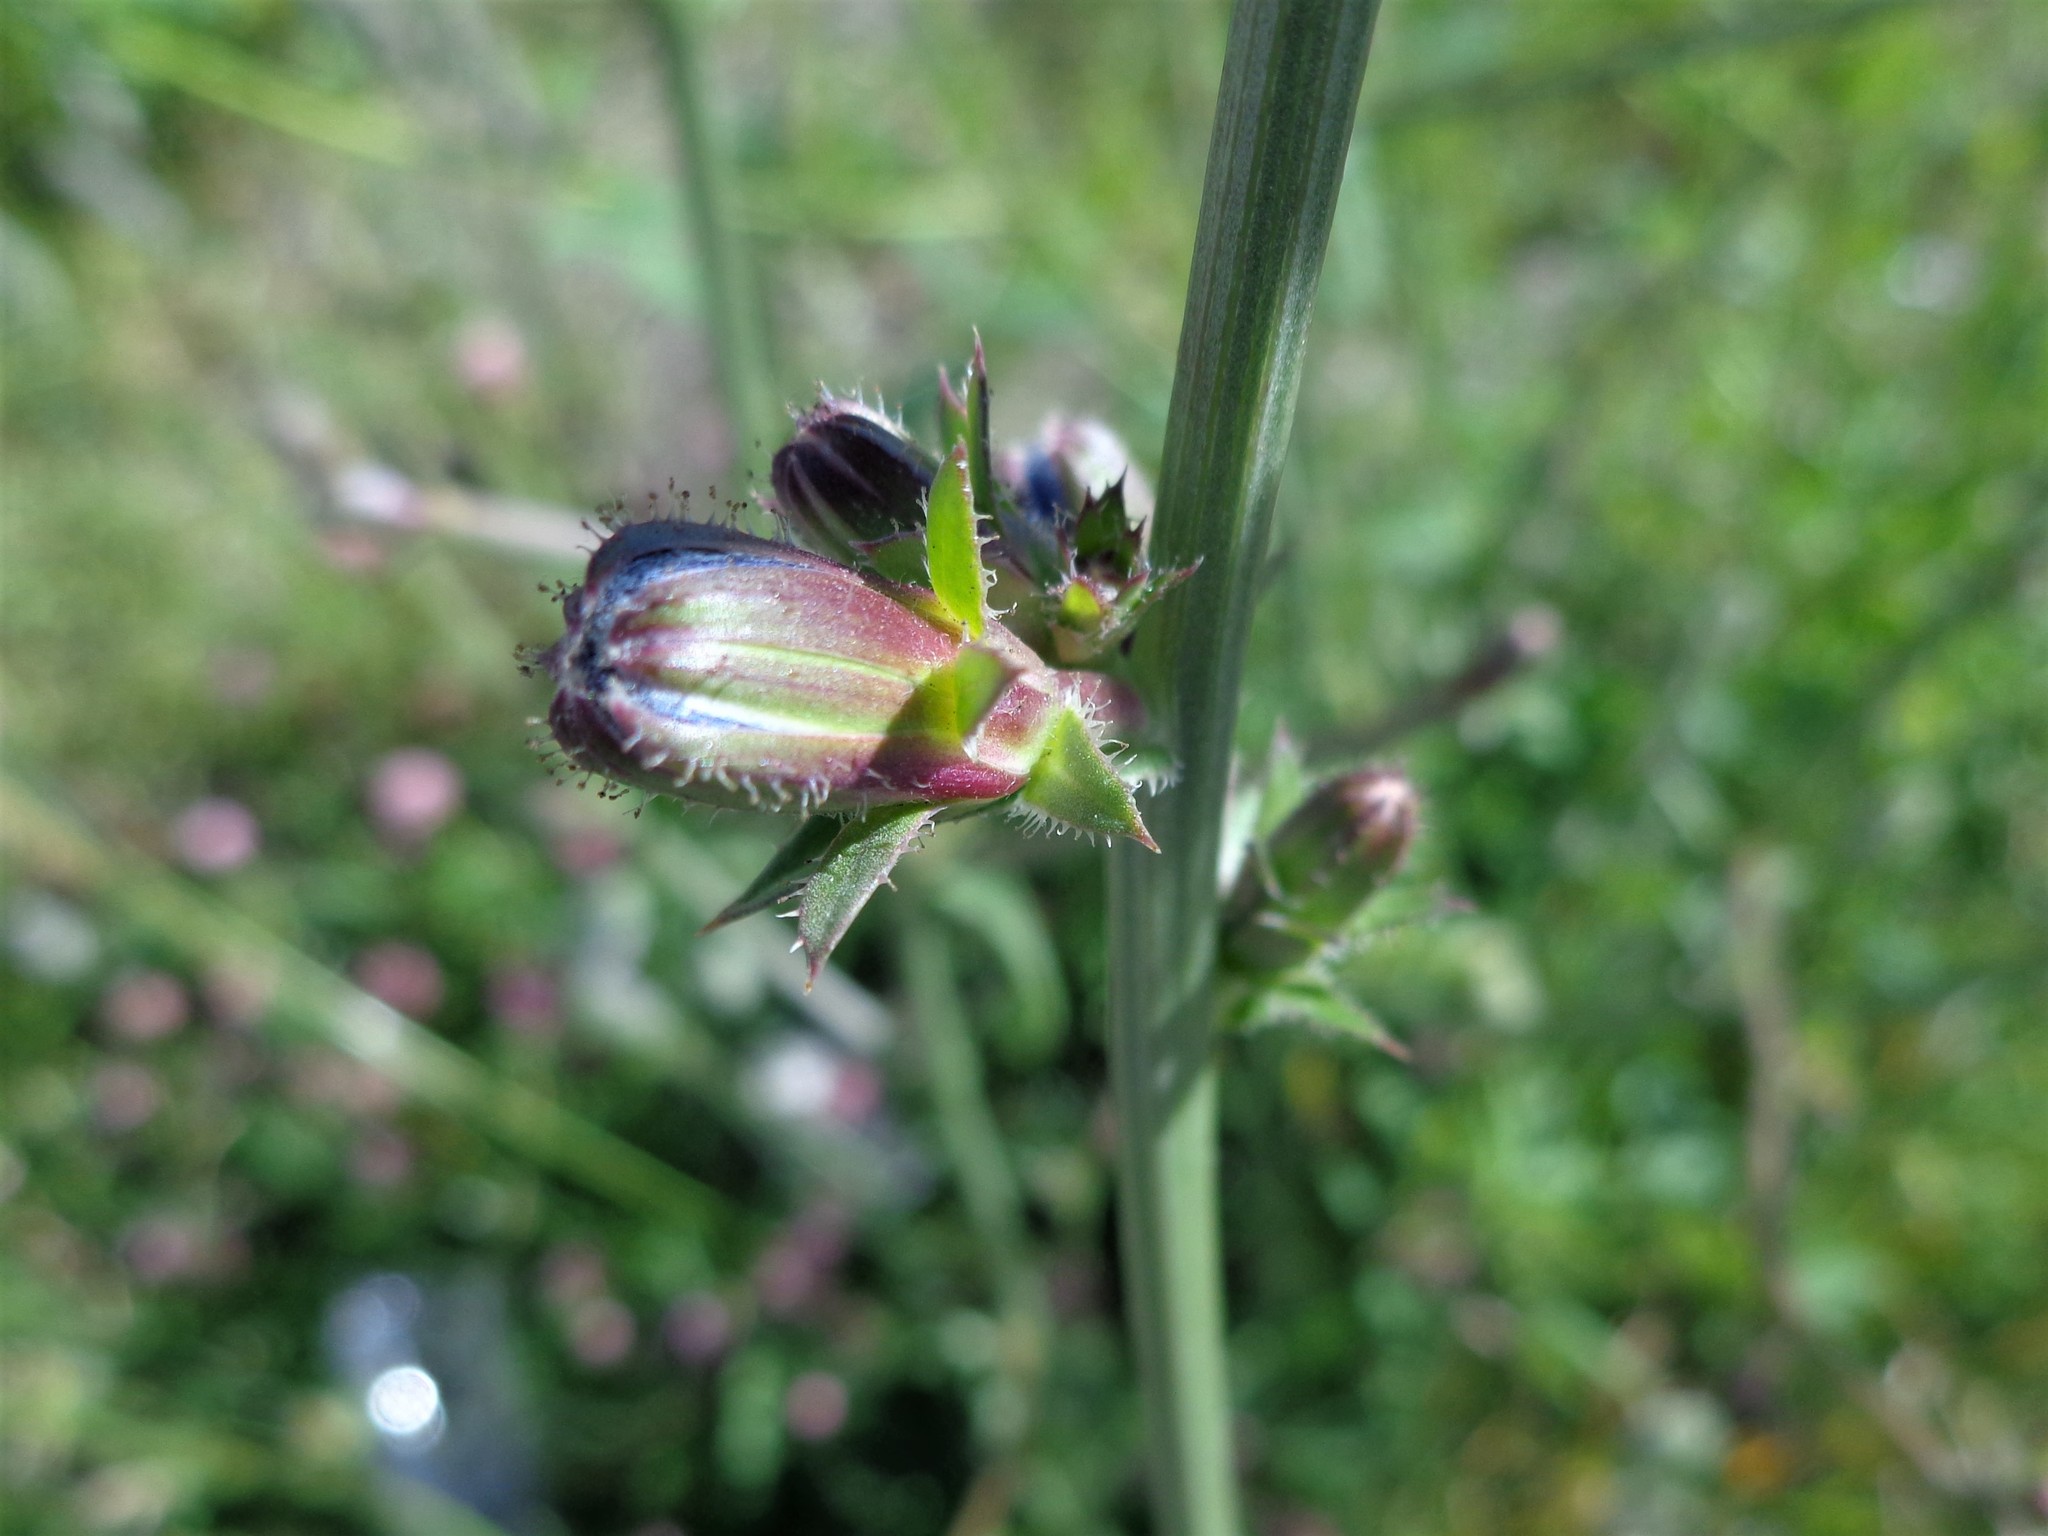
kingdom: Plantae
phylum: Tracheophyta
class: Magnoliopsida
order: Asterales
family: Asteraceae
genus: Cichorium
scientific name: Cichorium intybus
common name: Chicory
